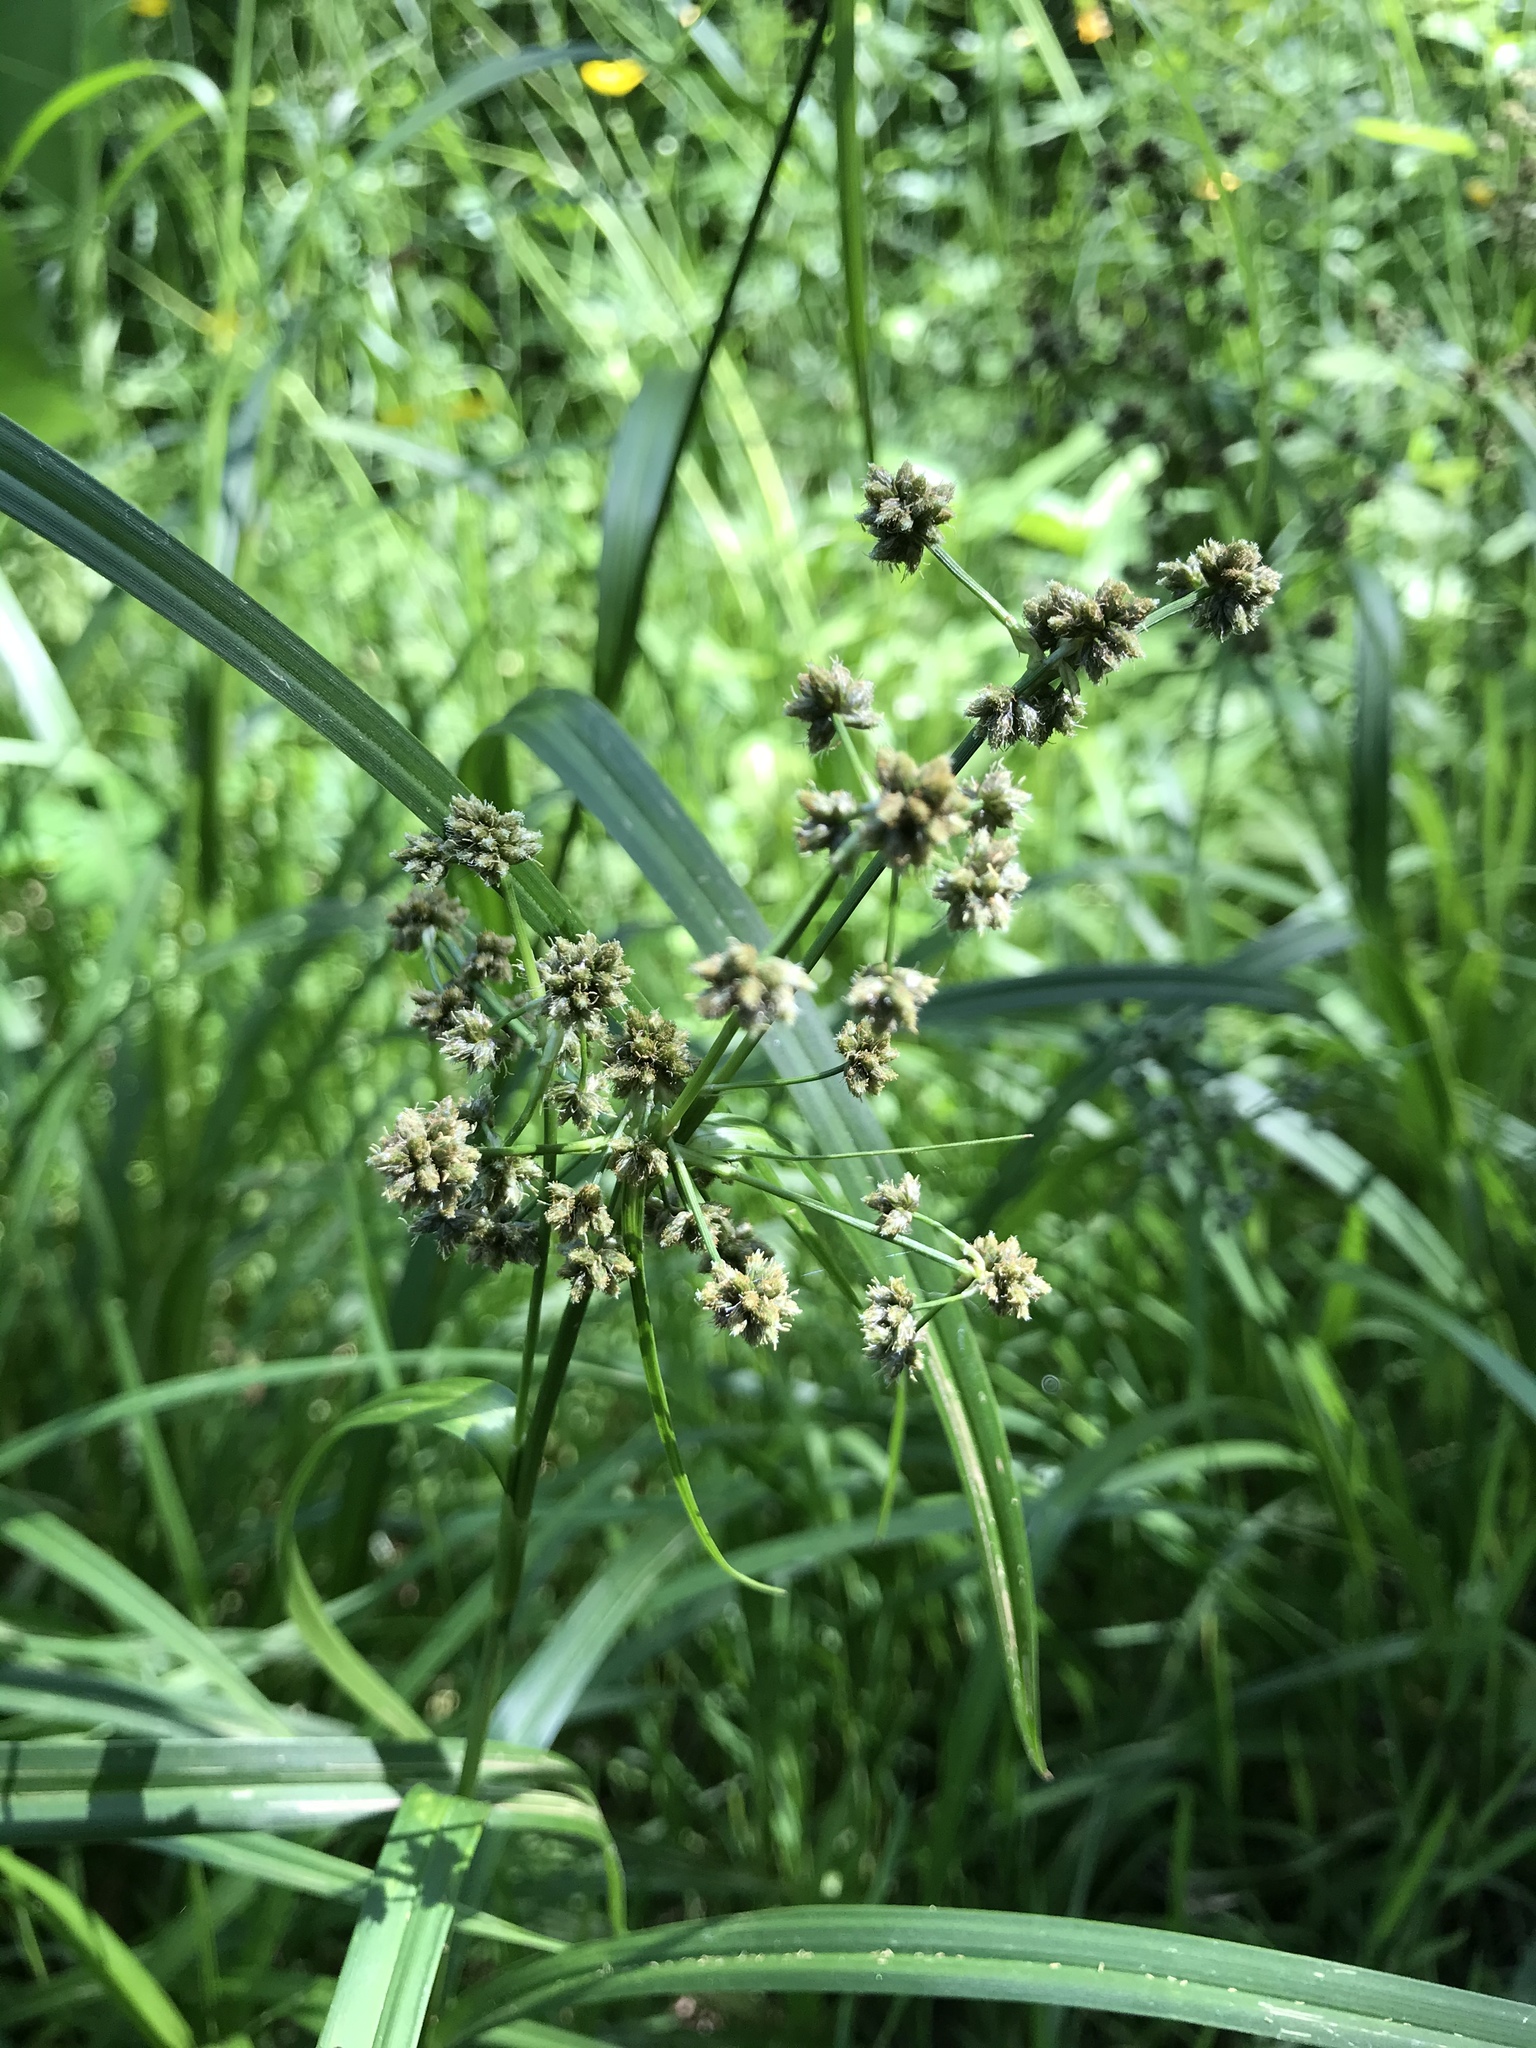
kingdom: Plantae
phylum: Tracheophyta
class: Liliopsida
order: Poales
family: Cyperaceae
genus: Scirpus
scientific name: Scirpus atrovirens
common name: Black bulrush
